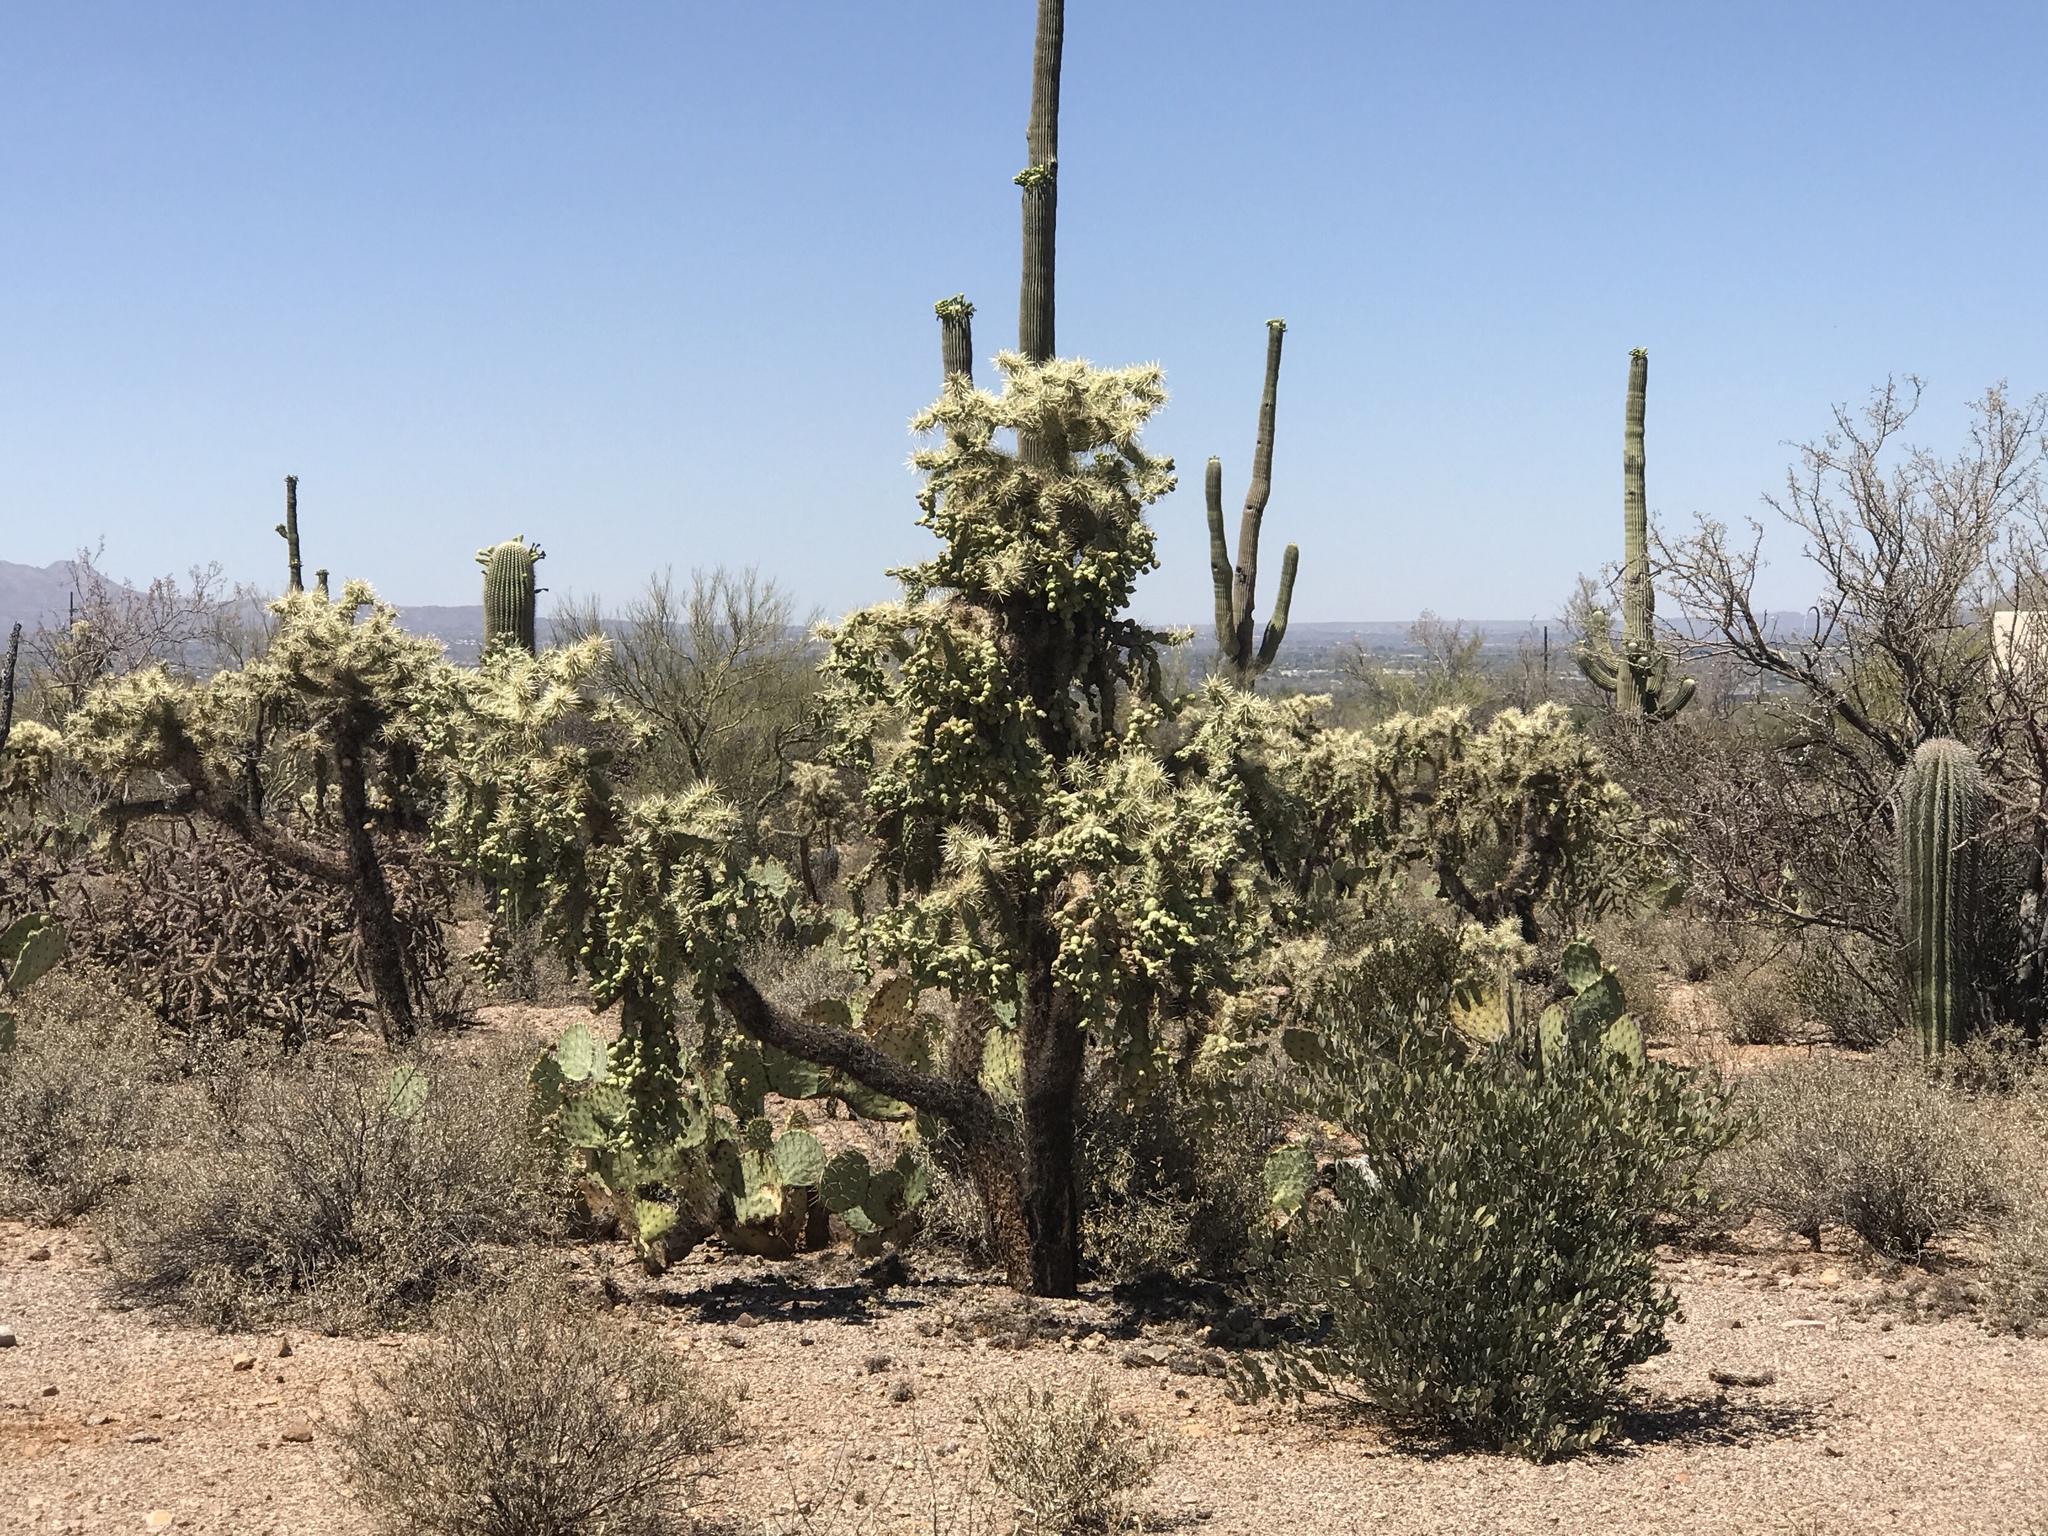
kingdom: Plantae
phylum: Tracheophyta
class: Magnoliopsida
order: Caryophyllales
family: Cactaceae
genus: Cylindropuntia
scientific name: Cylindropuntia fulgida
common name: Jumping cholla
